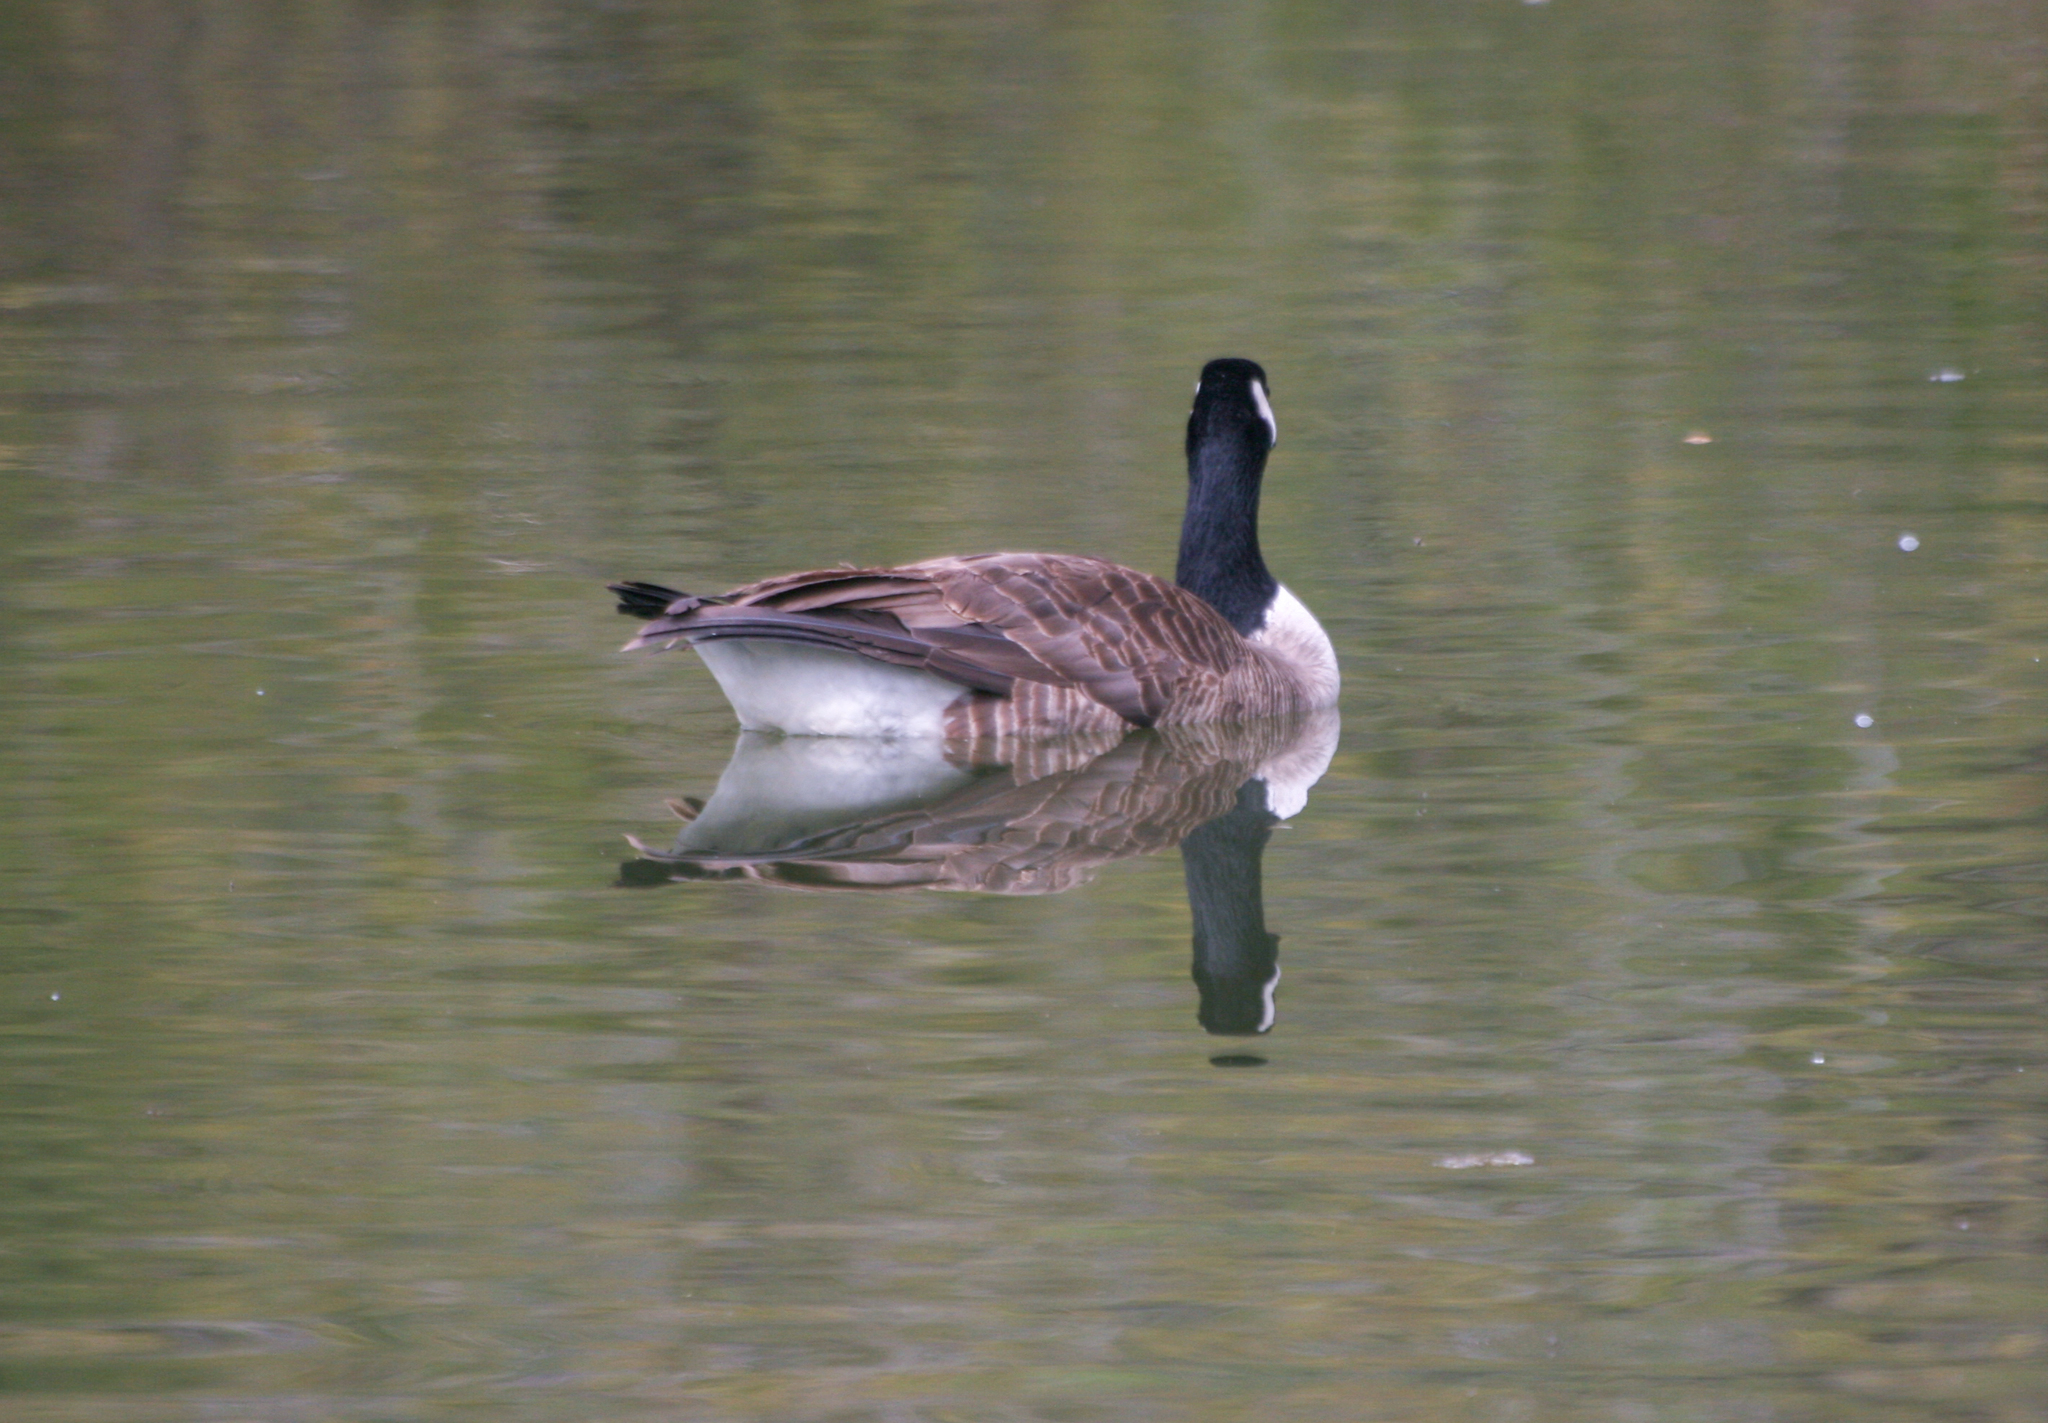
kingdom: Animalia
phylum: Chordata
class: Aves
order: Anseriformes
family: Anatidae
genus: Branta
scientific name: Branta canadensis
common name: Canada goose
